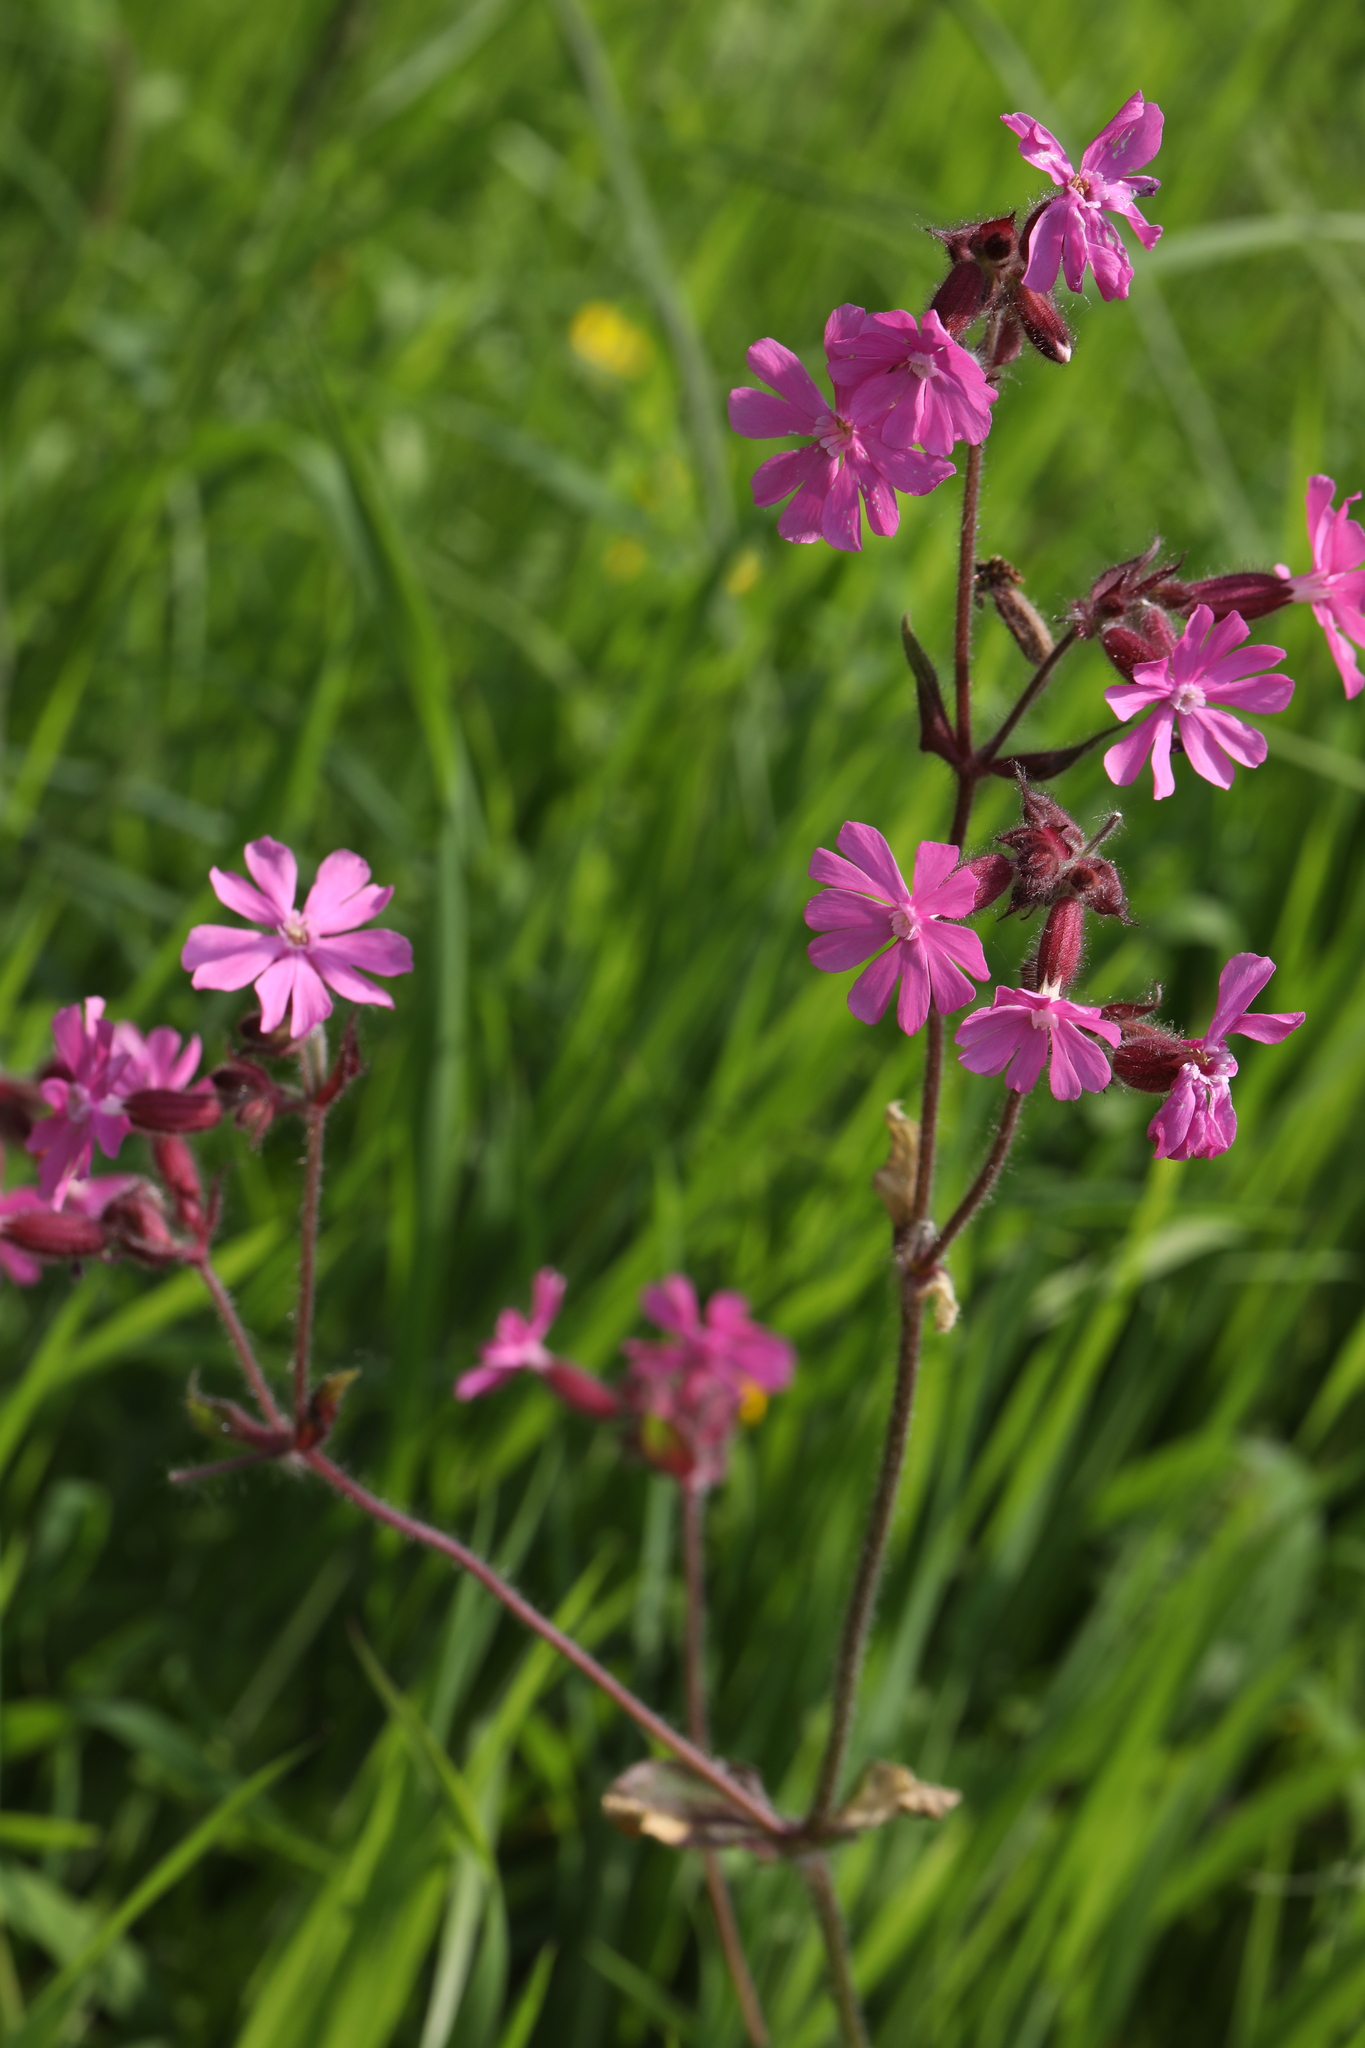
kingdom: Plantae
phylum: Tracheophyta
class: Magnoliopsida
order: Caryophyllales
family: Caryophyllaceae
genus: Silene
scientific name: Silene dioica
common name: Red campion
